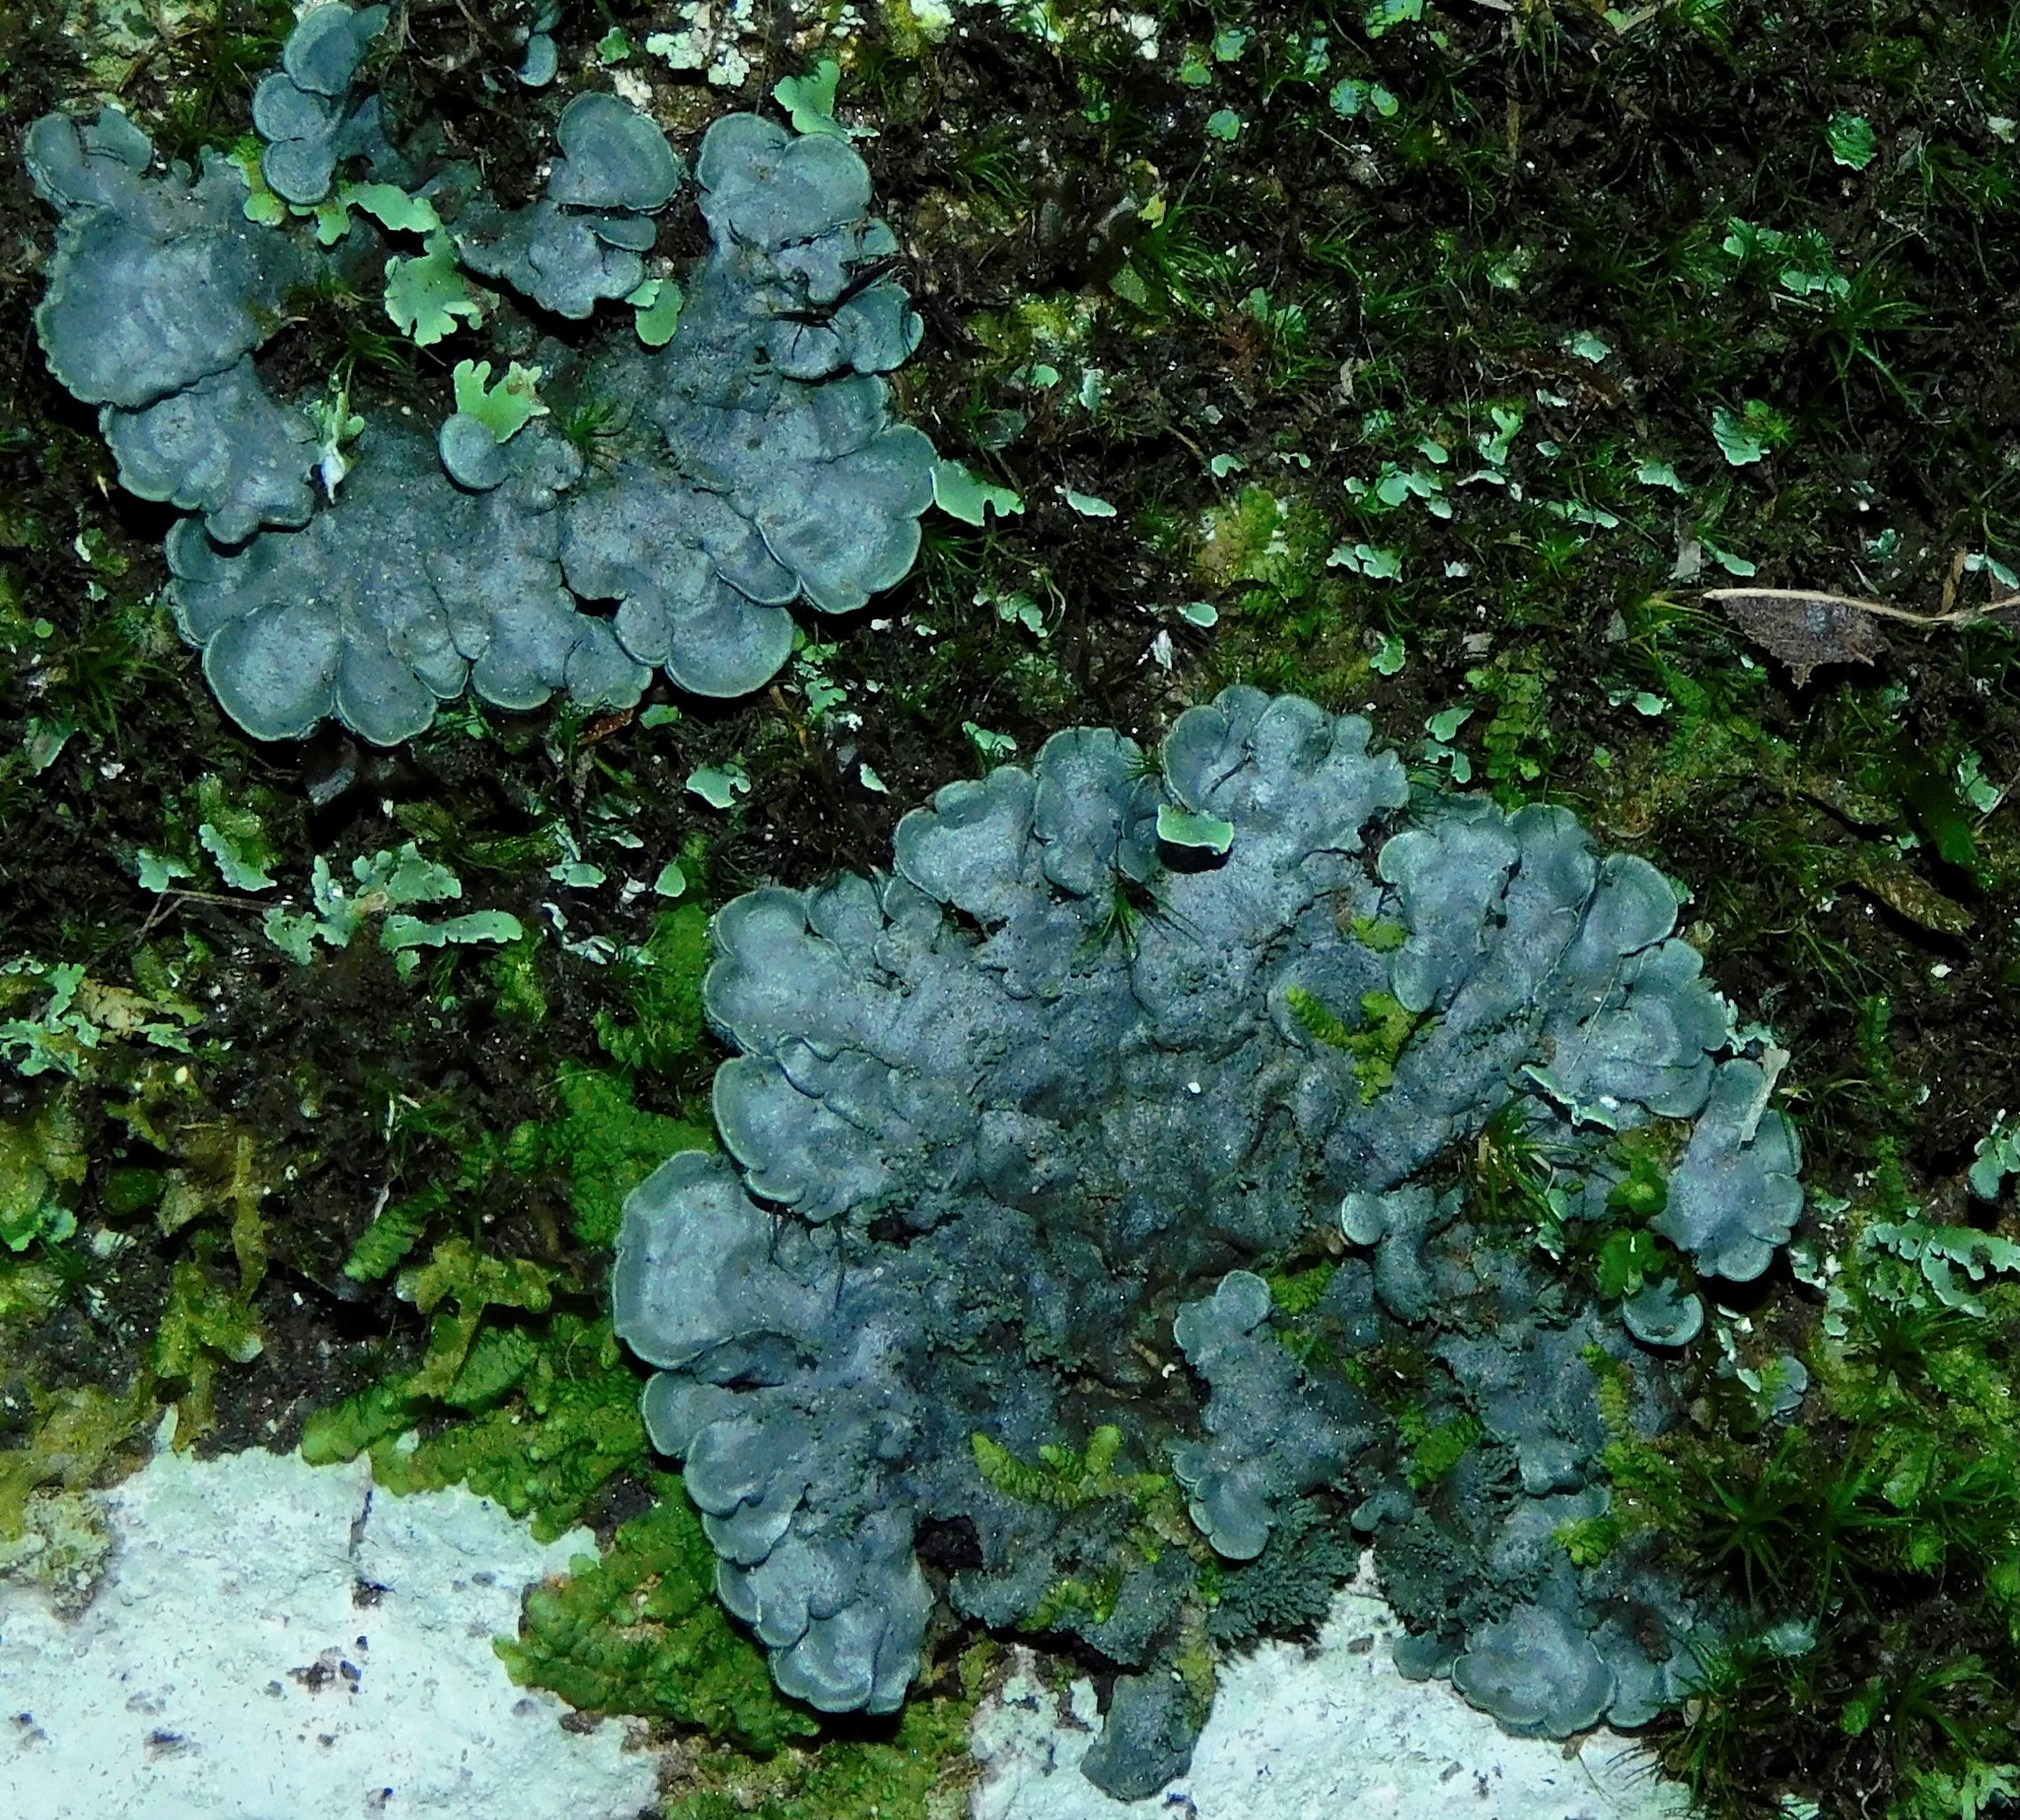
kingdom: Fungi
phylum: Ascomycota
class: Lecanoromycetes
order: Peltigerales
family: Coccocarpiaceae
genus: Coccocarpia
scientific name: Coccocarpia palmicola
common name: Salted shell lichen
